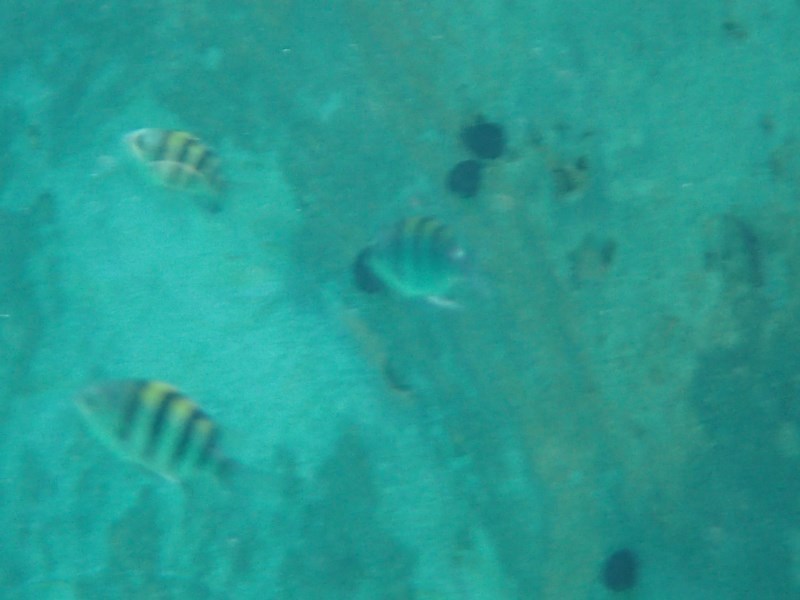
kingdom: Animalia
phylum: Chordata
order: Perciformes
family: Pomacentridae
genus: Abudefduf
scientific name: Abudefduf vaigiensis
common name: Indo-pacific sergeant
